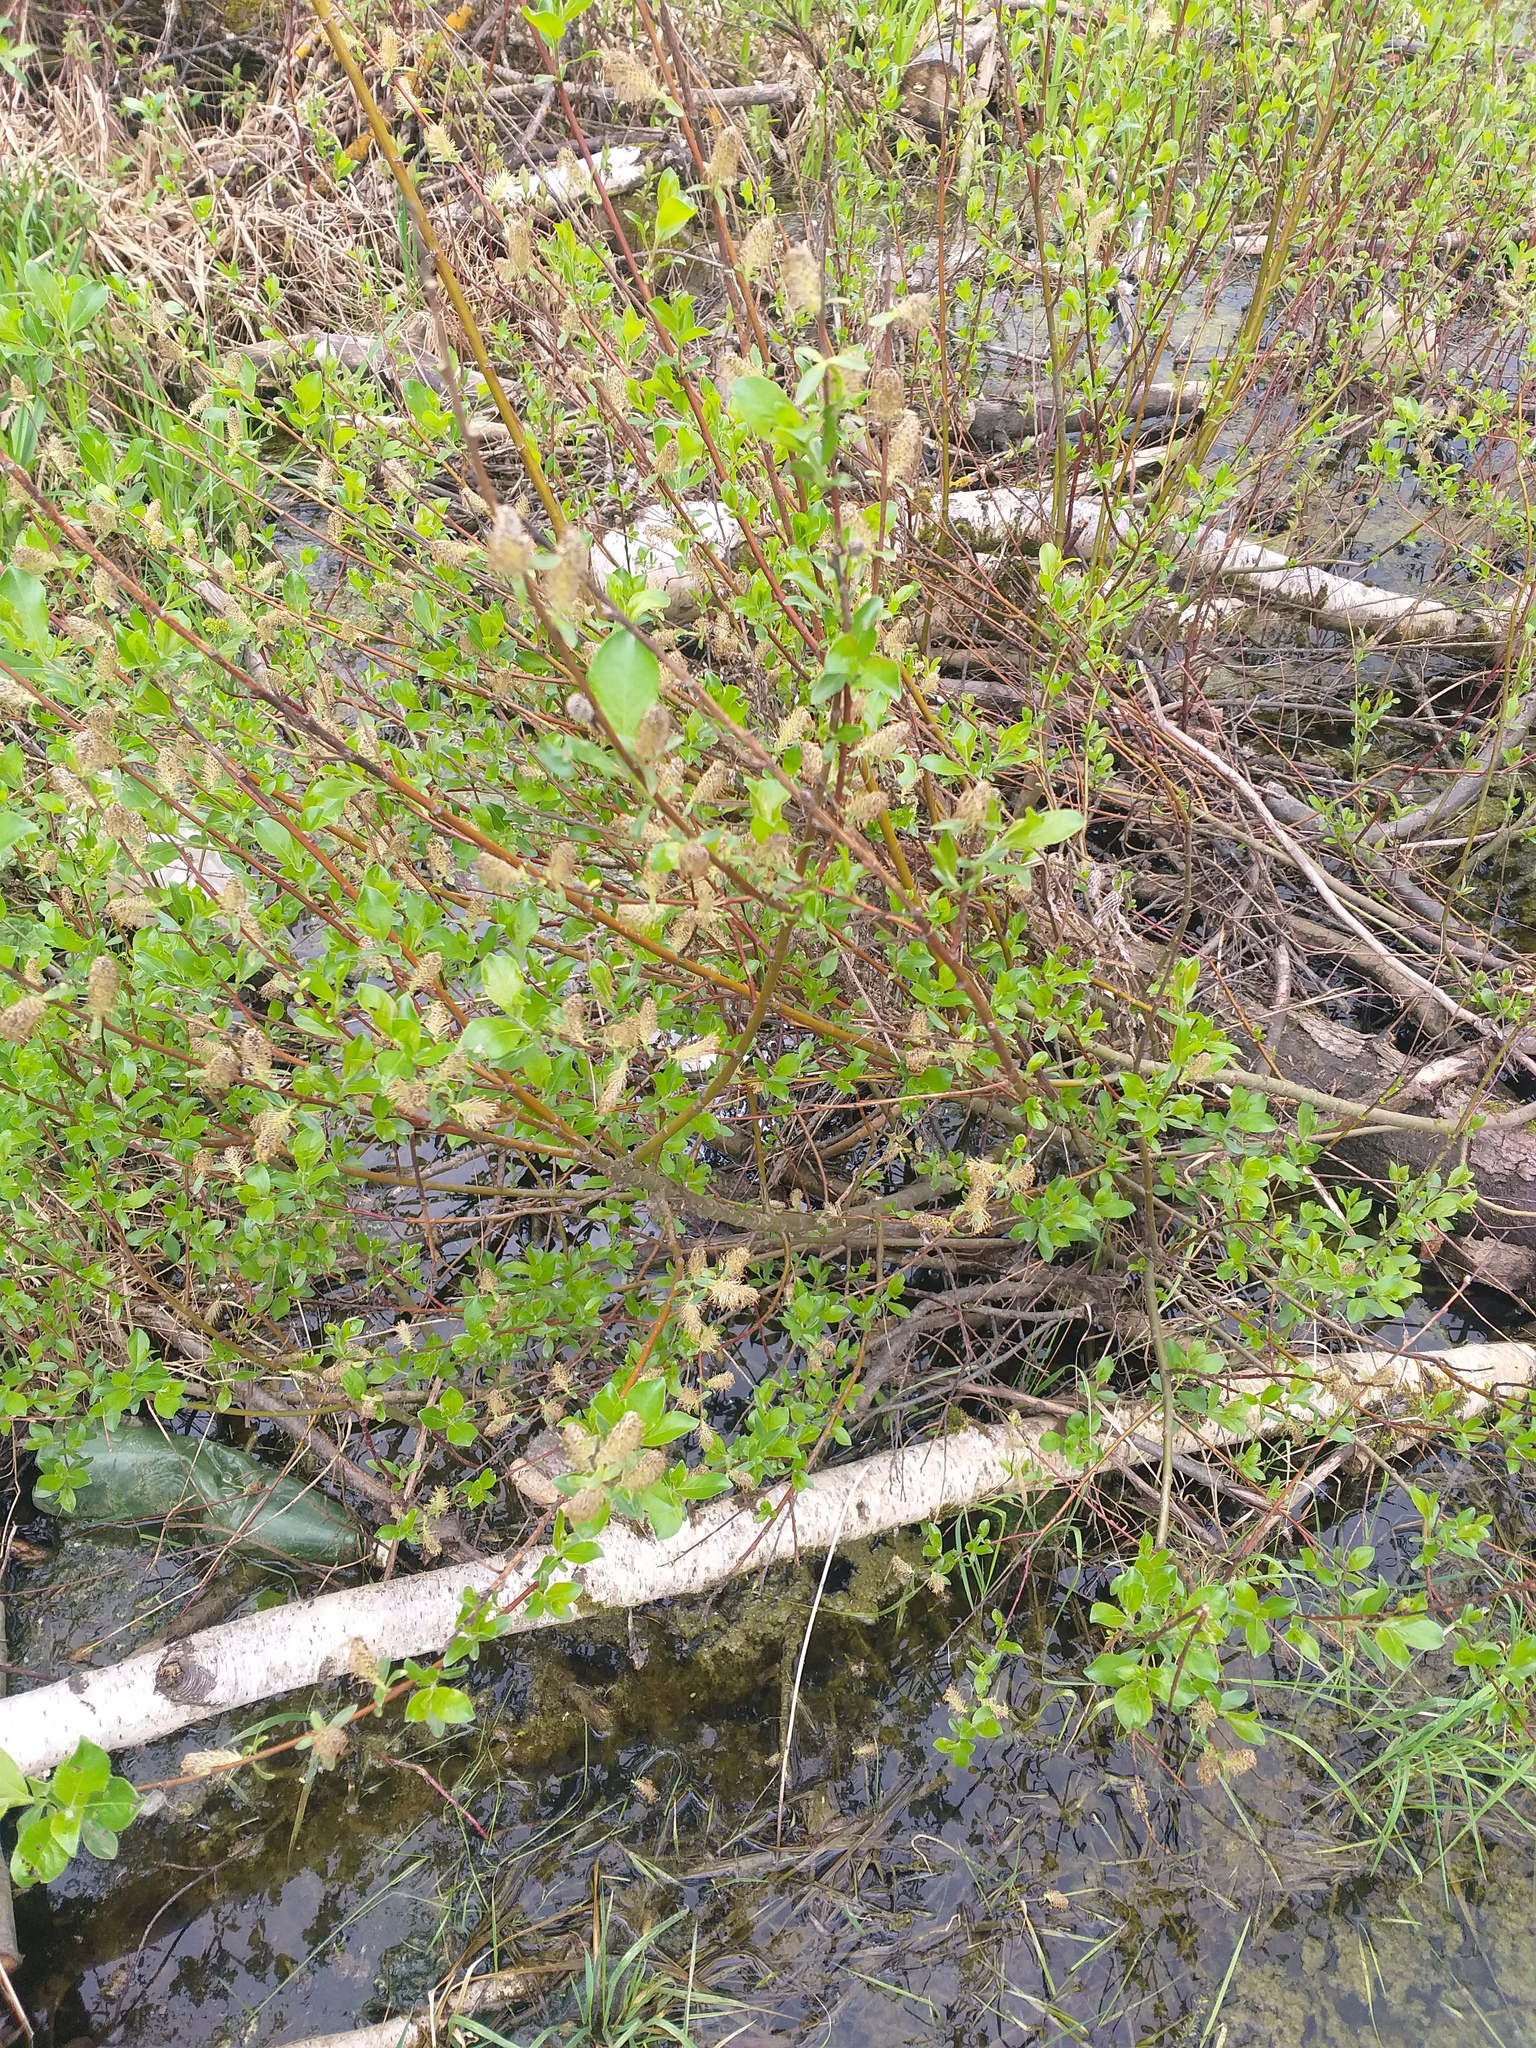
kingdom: Plantae
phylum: Tracheophyta
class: Magnoliopsida
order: Malpighiales
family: Salicaceae
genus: Salix
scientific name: Salix myrsinifolia
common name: Dark-leaved willow
